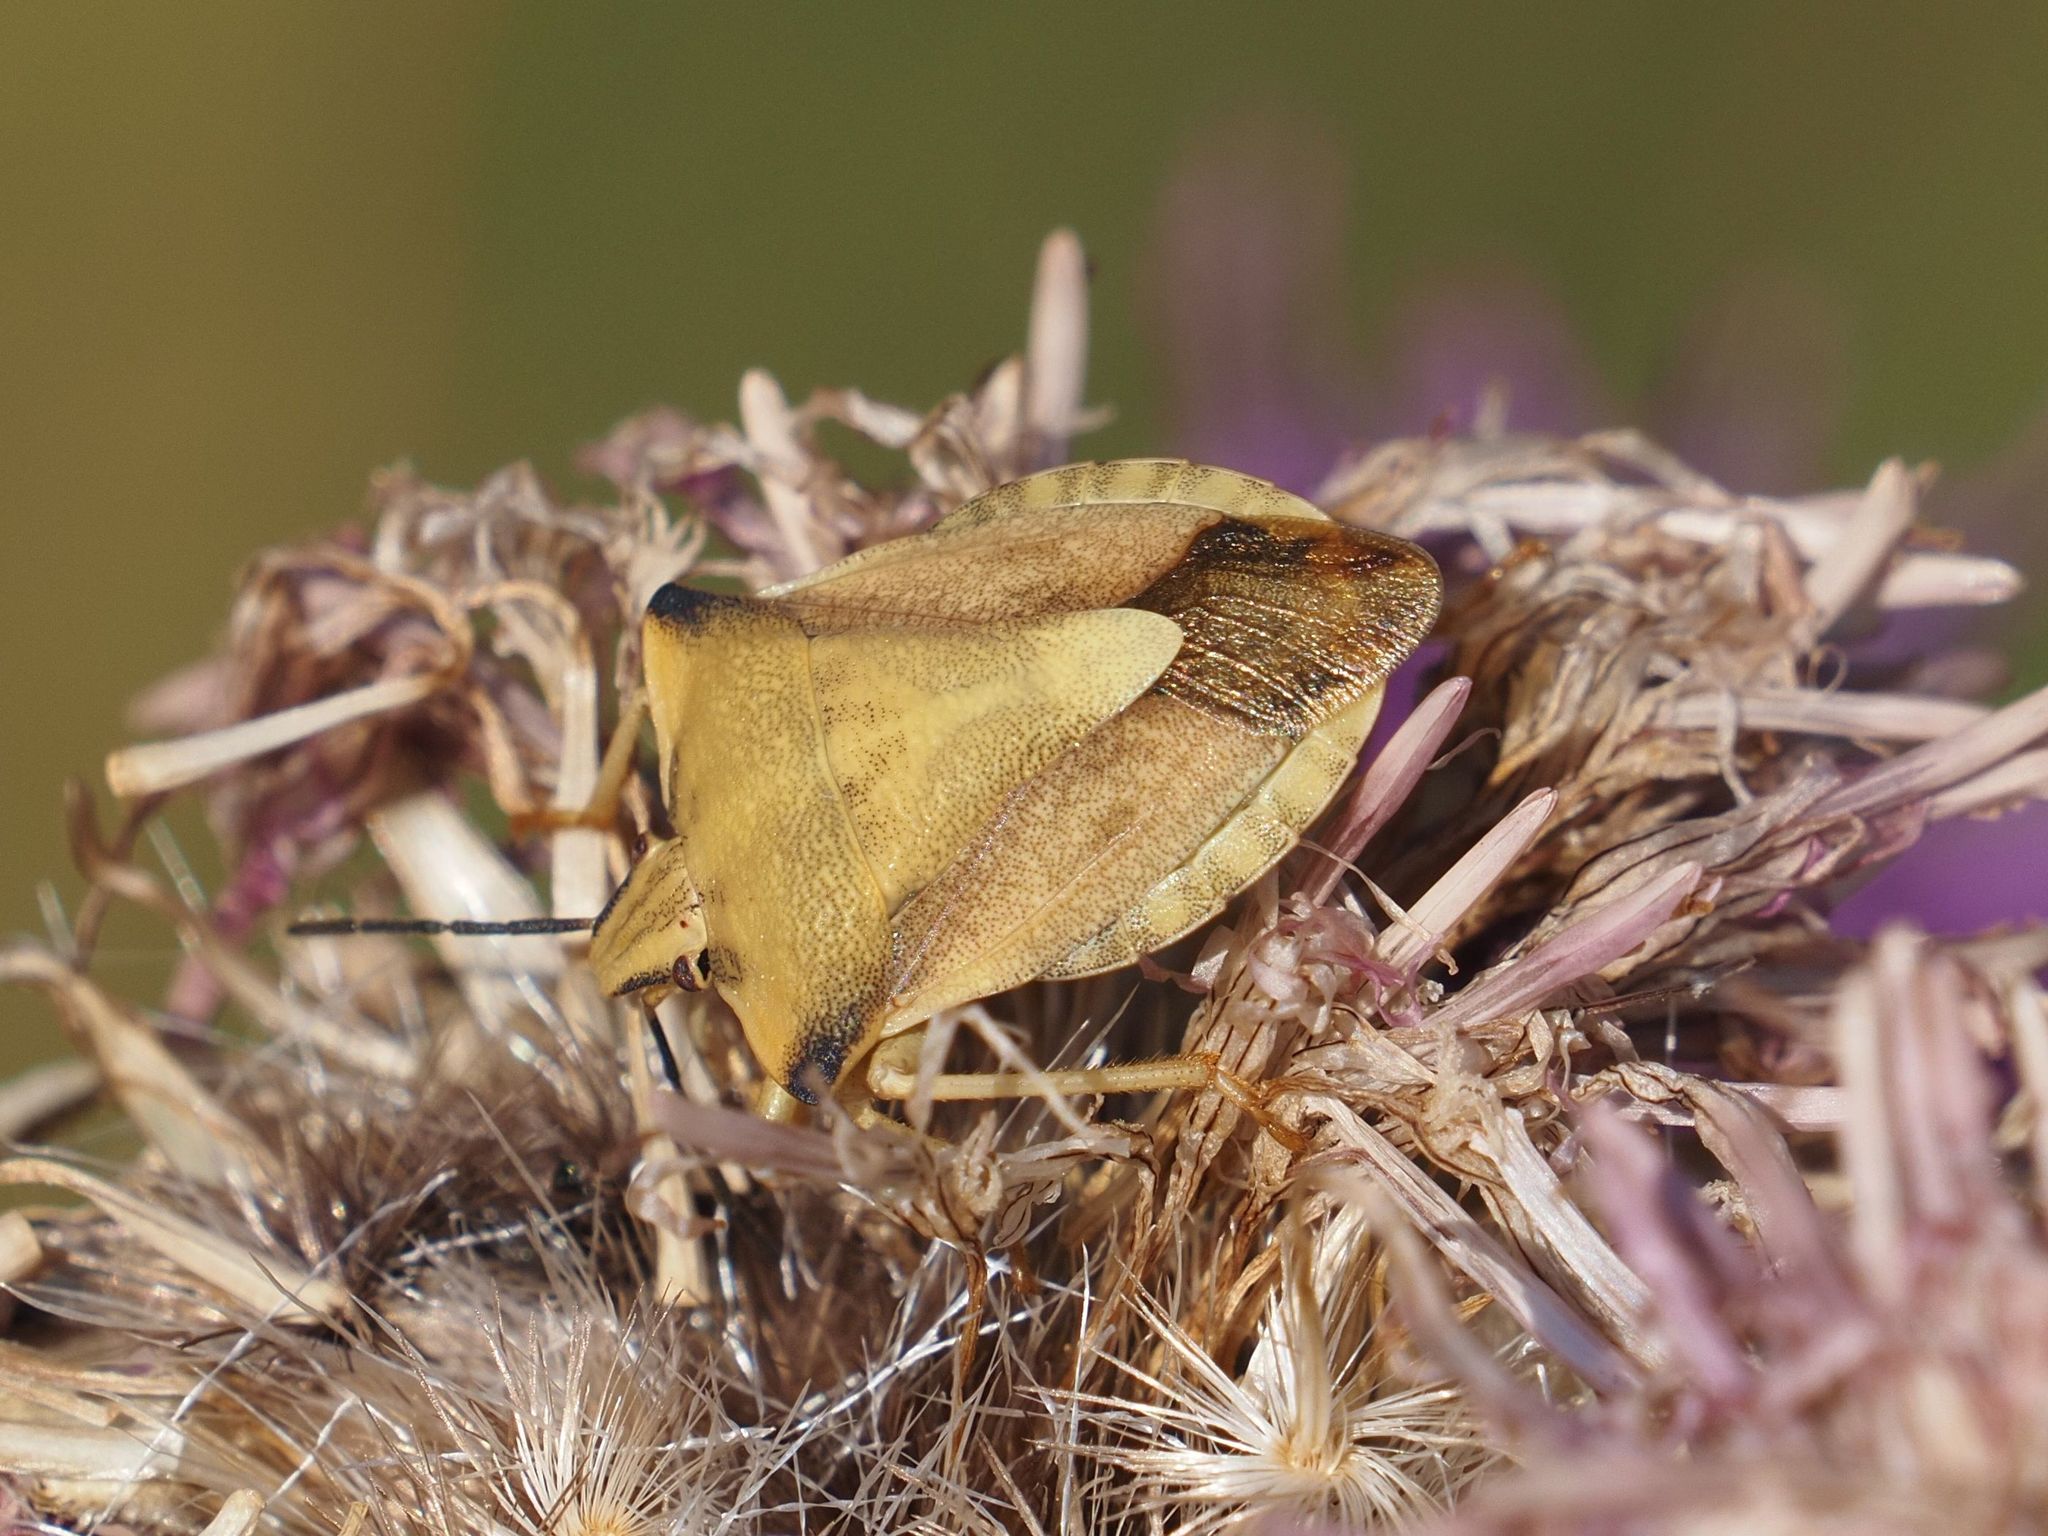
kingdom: Animalia
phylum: Arthropoda
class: Insecta
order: Hemiptera
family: Pentatomidae
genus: Carpocoris
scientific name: Carpocoris fuscispinus
